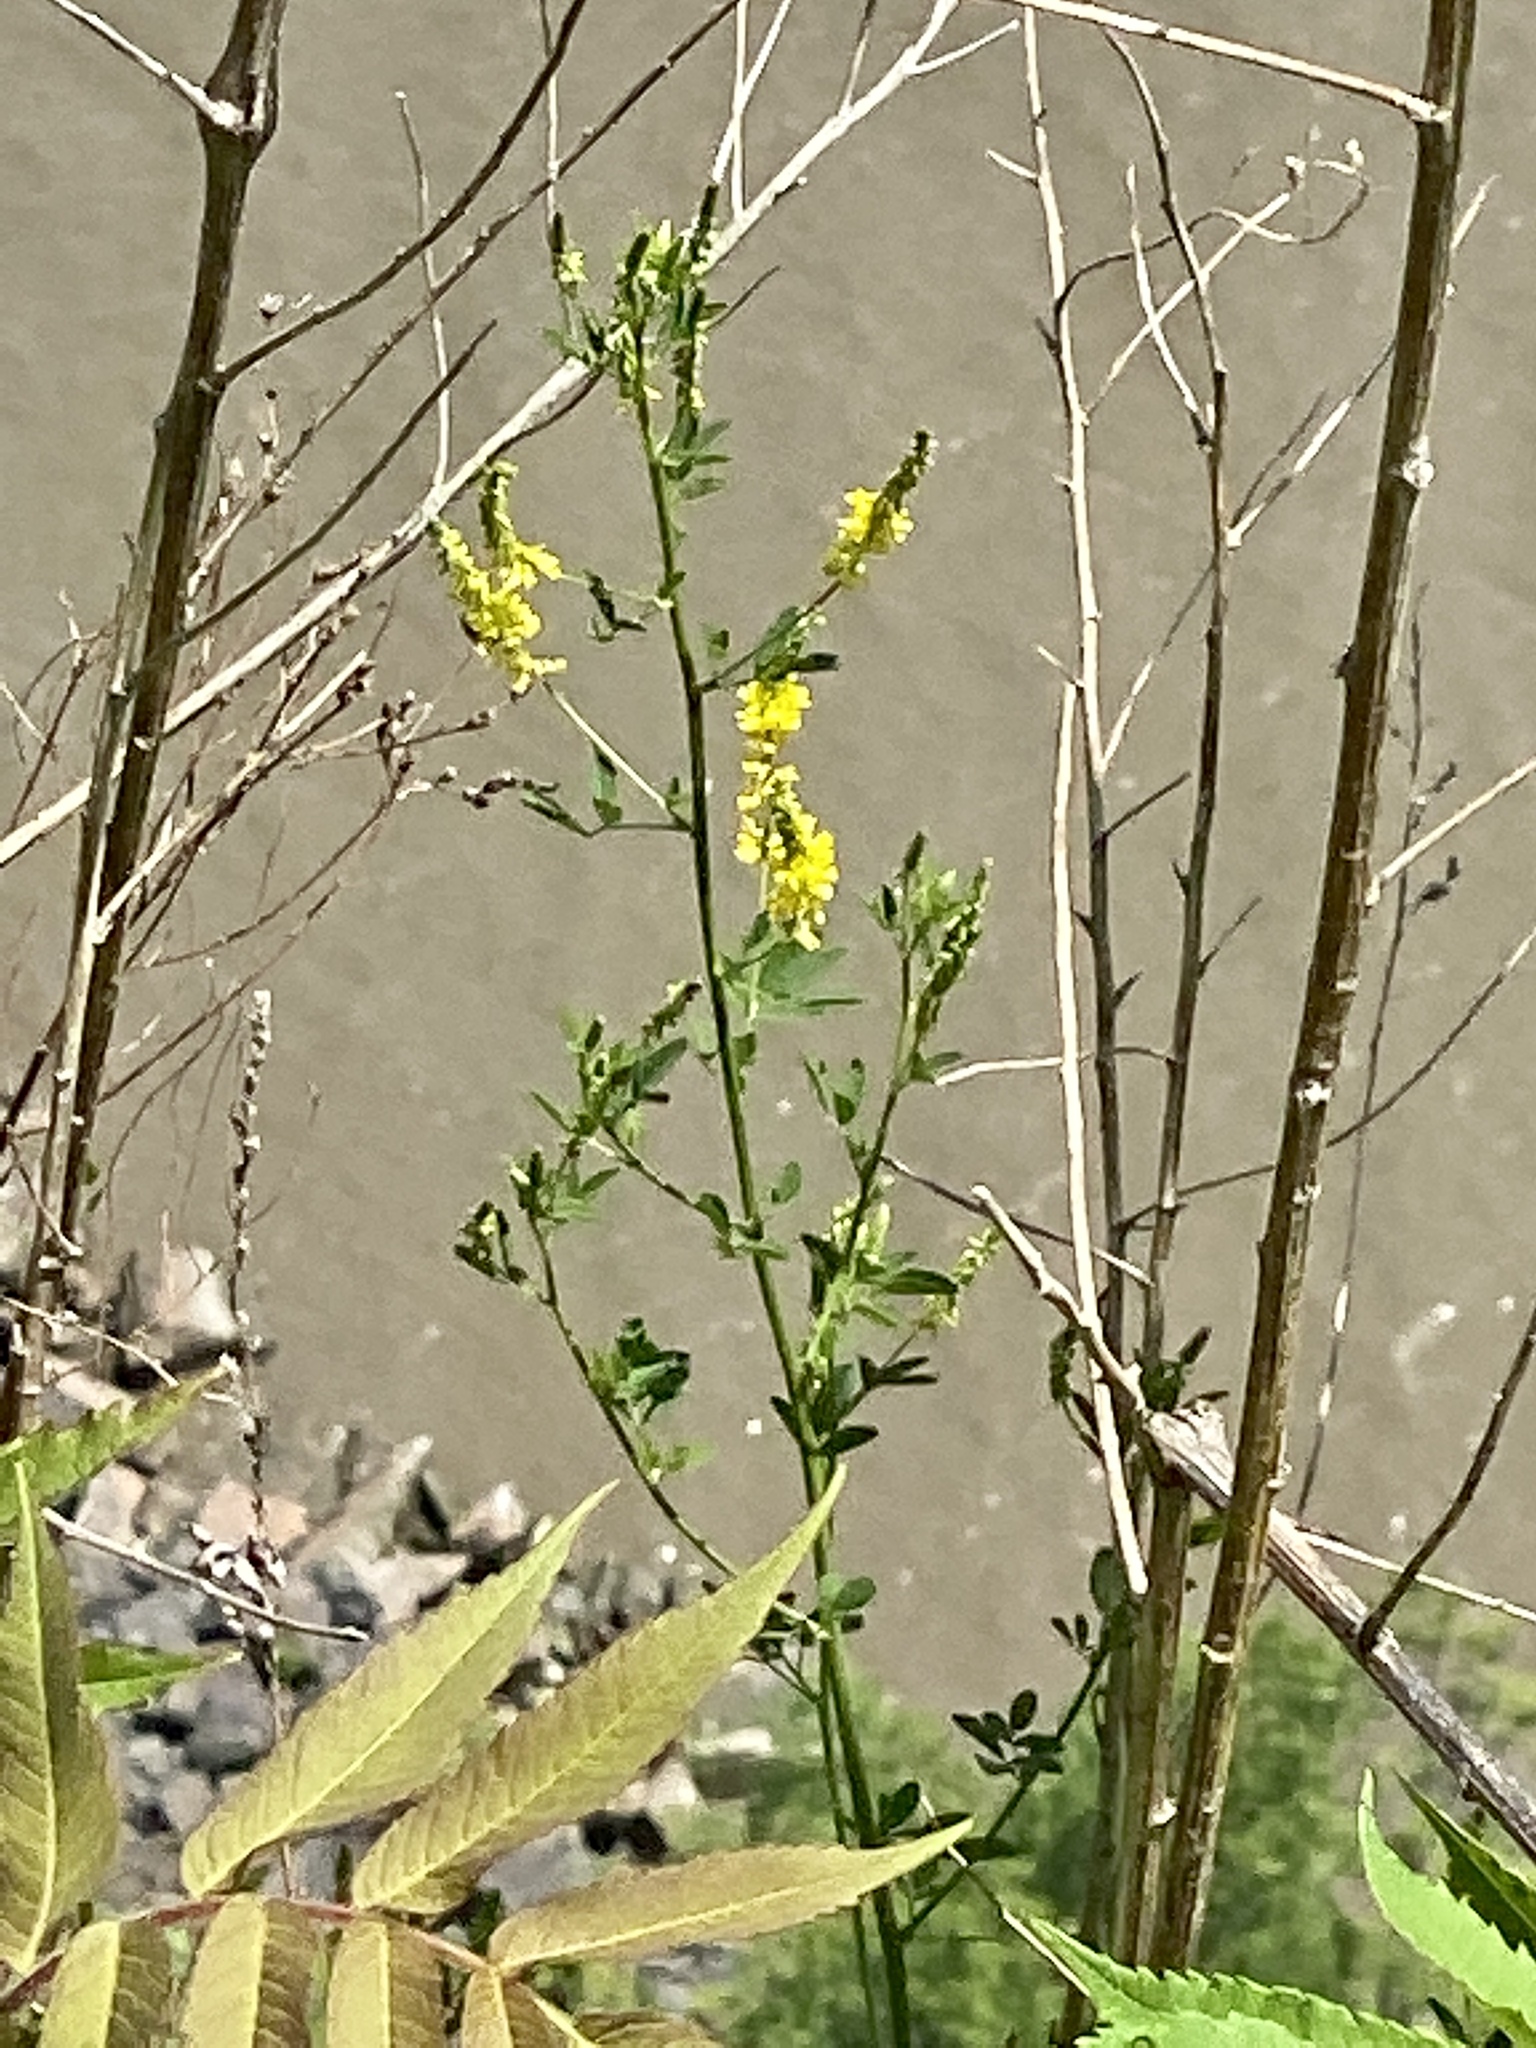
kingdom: Plantae
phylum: Tracheophyta
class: Magnoliopsida
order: Fabales
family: Fabaceae
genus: Melilotus
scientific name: Melilotus officinalis
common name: Sweetclover
